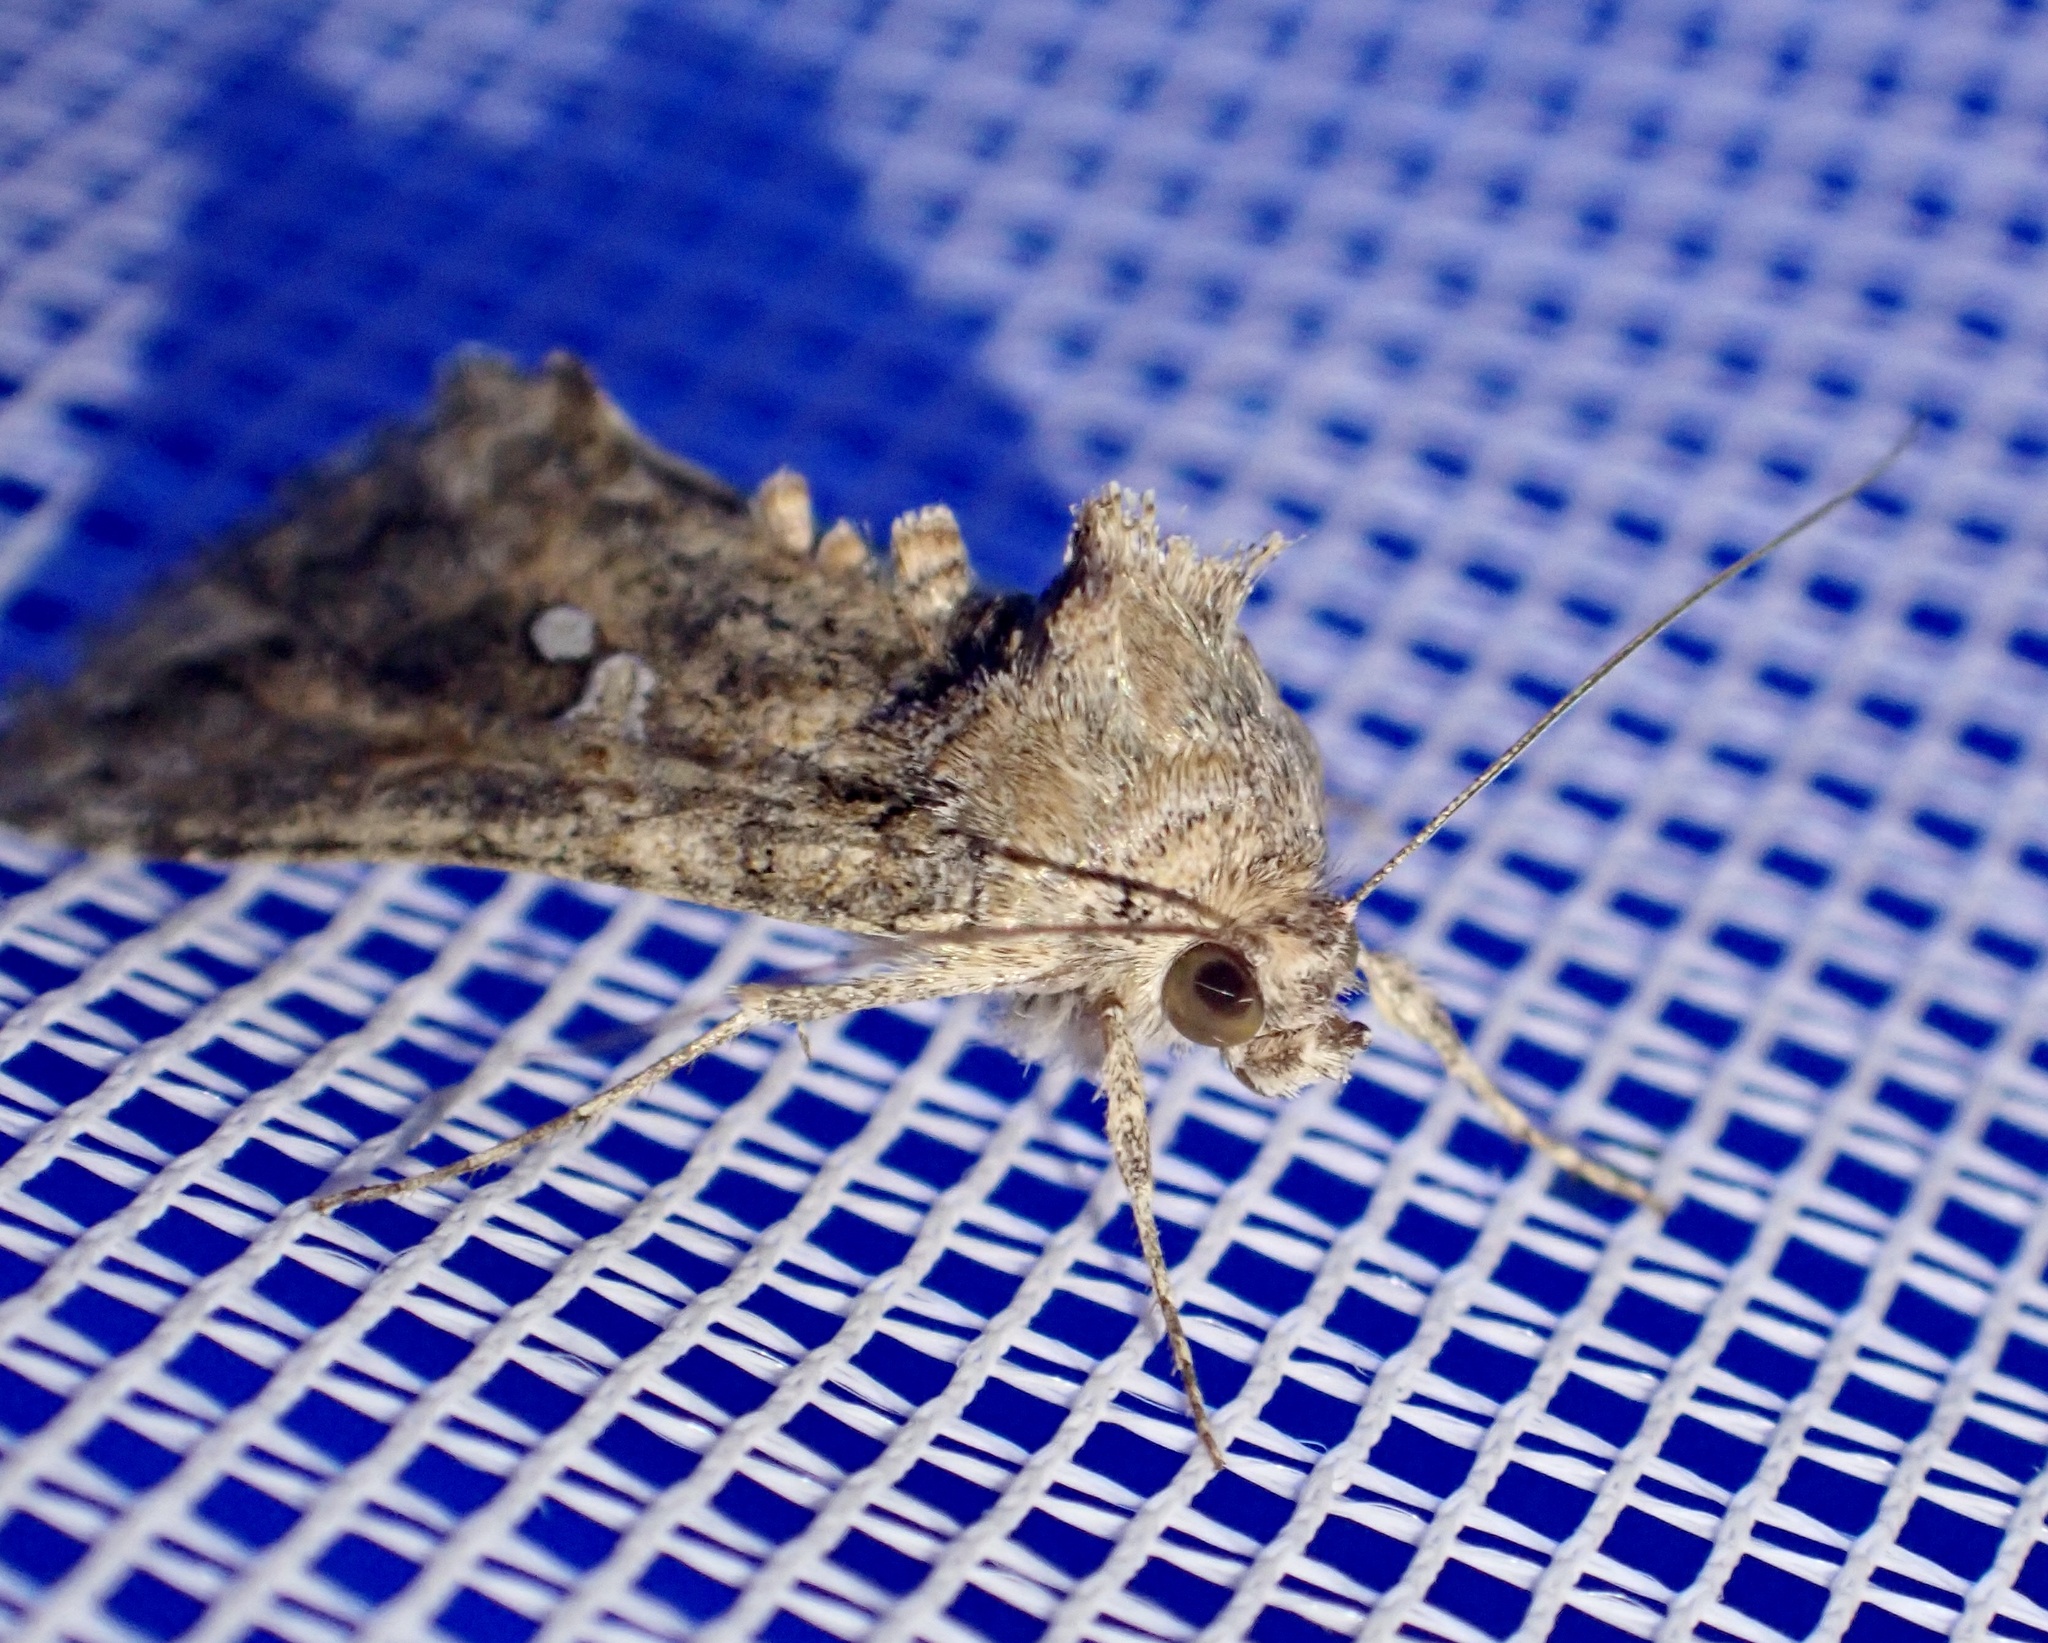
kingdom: Animalia
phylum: Arthropoda
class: Insecta
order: Lepidoptera
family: Noctuidae
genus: Trichoplusia
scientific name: Trichoplusia ni
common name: Ni moth
